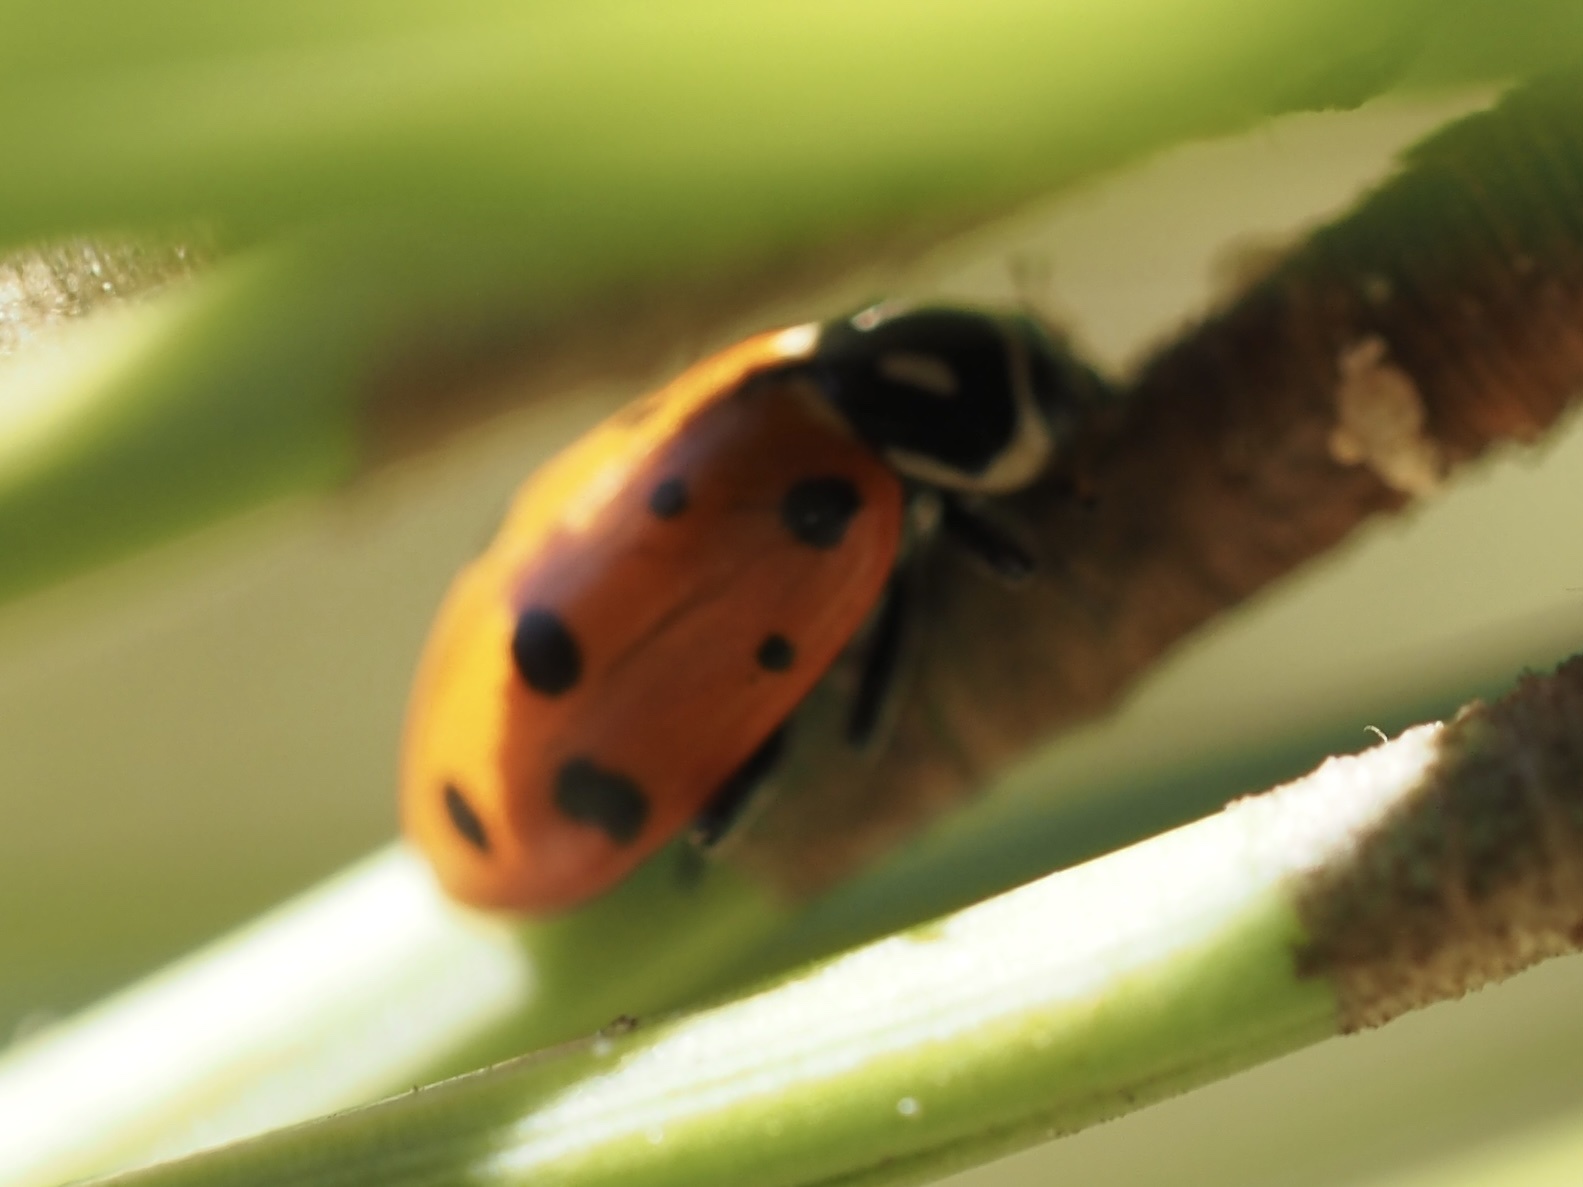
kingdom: Animalia
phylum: Arthropoda
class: Insecta
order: Coleoptera
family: Coccinellidae
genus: Hippodamia
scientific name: Hippodamia convergens
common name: Convergent lady beetle
